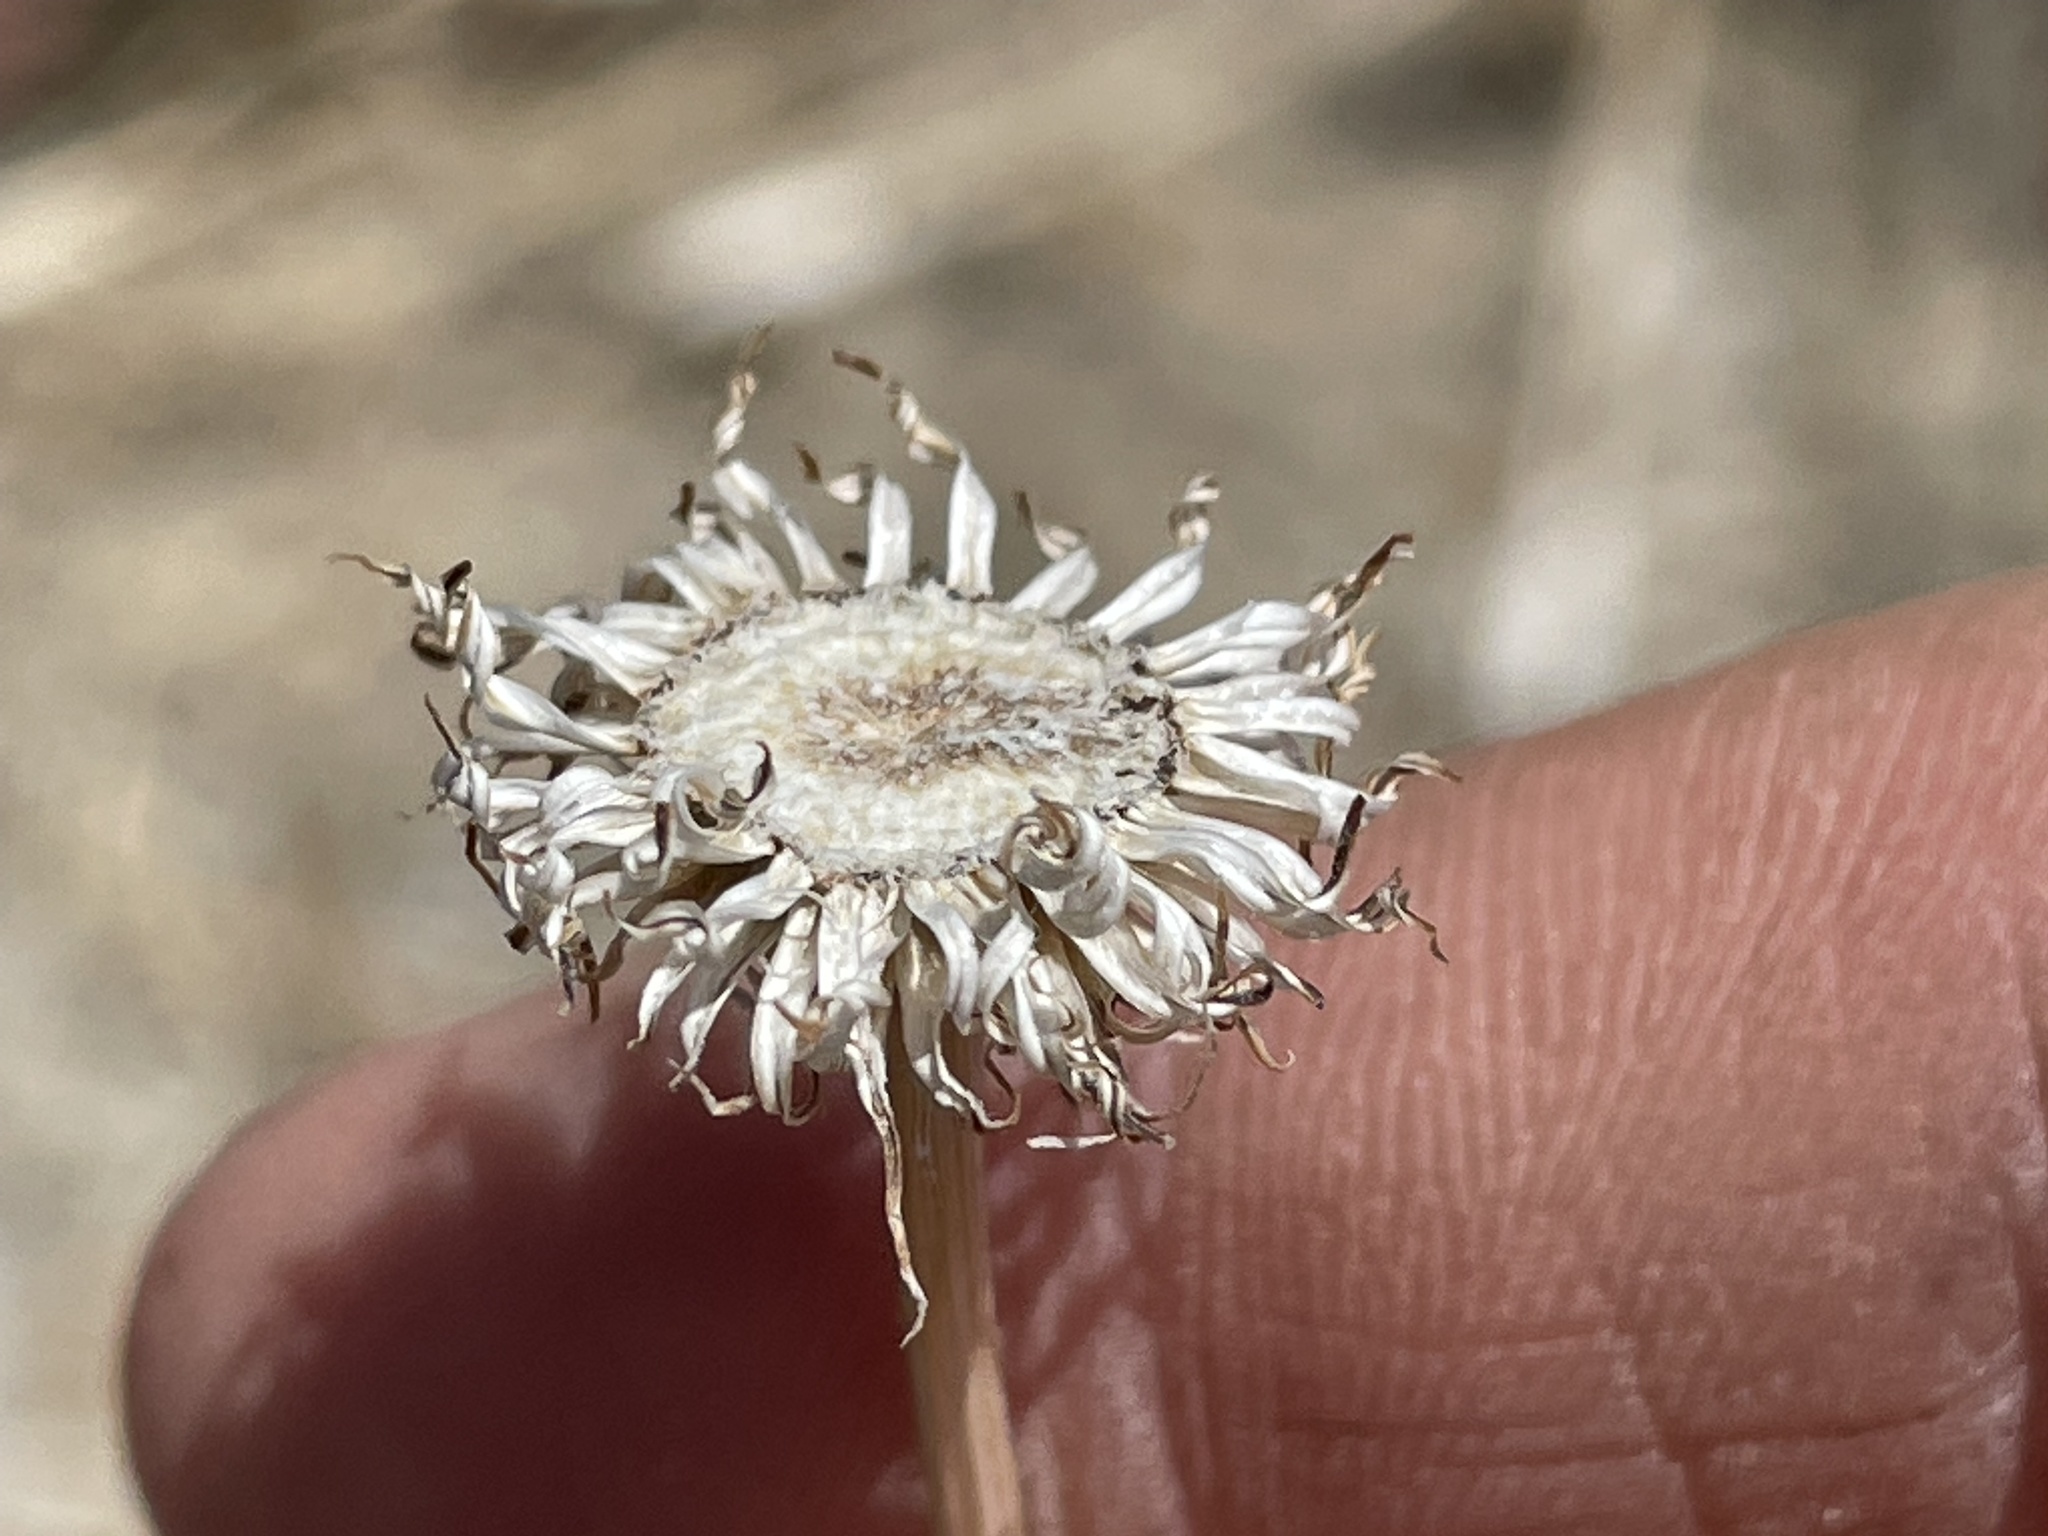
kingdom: Plantae
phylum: Tracheophyta
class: Magnoliopsida
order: Asterales
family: Asteraceae
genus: Encelia
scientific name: Encelia farinosa
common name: Brittlebush
